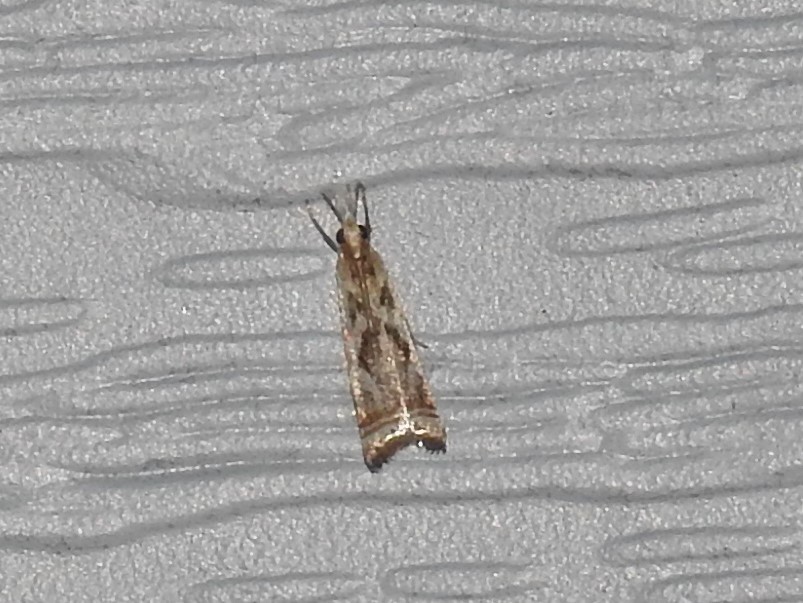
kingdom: Animalia
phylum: Arthropoda
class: Insecta
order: Lepidoptera
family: Crambidae
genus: Microcrambus
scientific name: Microcrambus elegans
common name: Elegant grass-veneer
